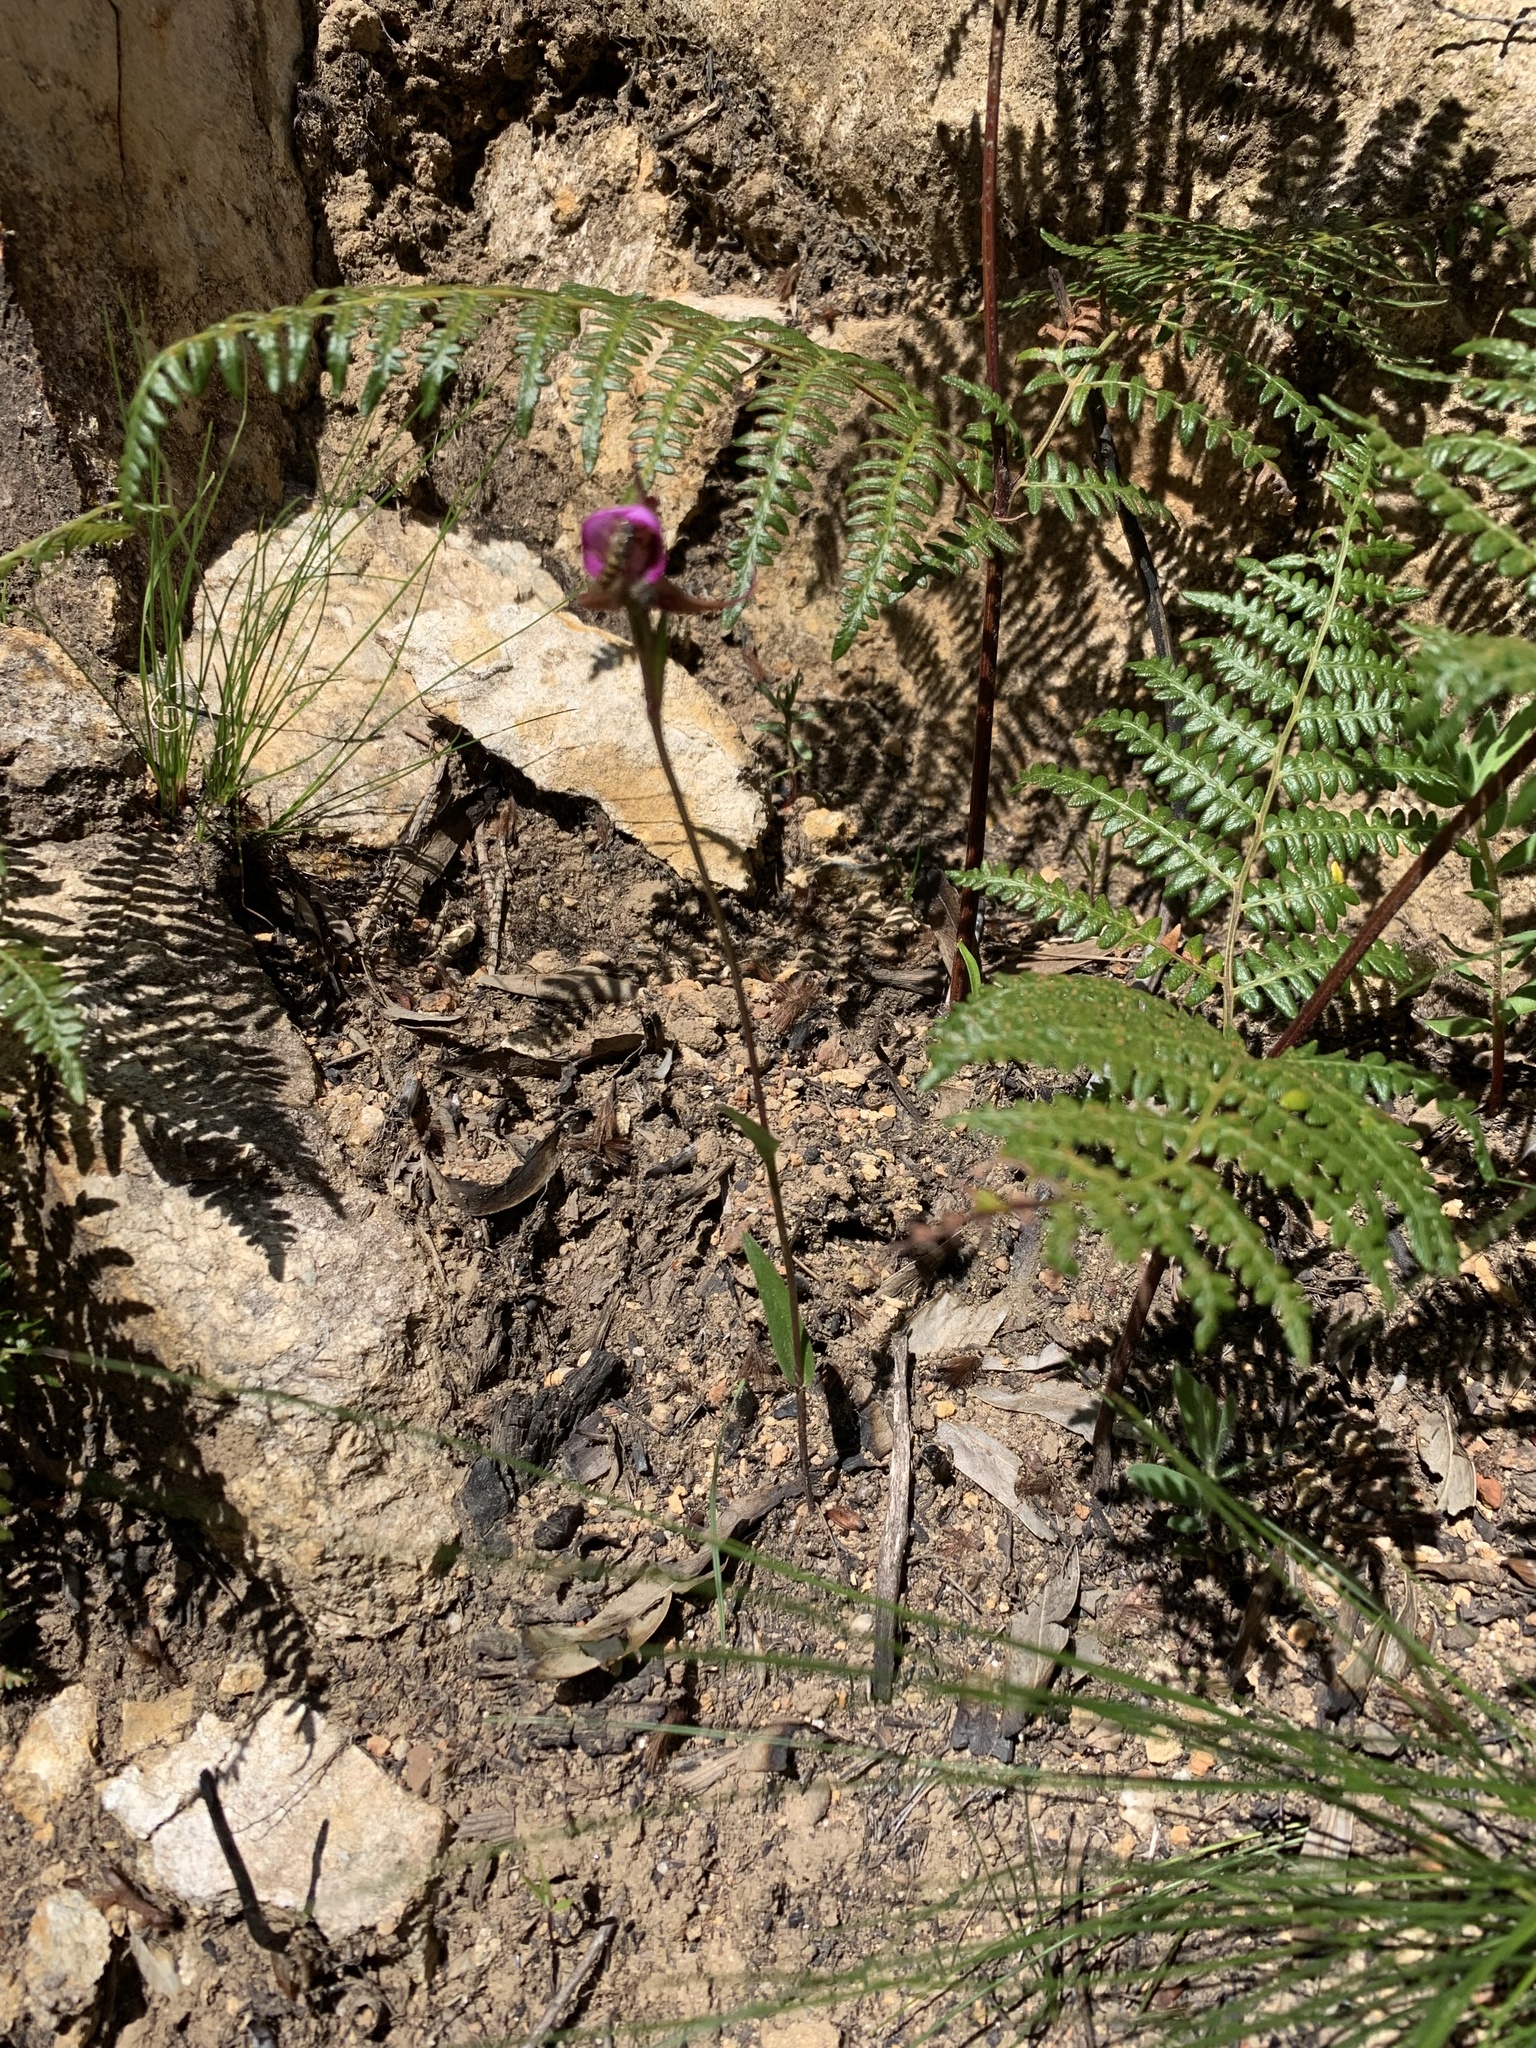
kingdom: Plantae
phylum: Tracheophyta
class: Liliopsida
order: Asparagales
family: Orchidaceae
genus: Disperis
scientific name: Disperis capensis
